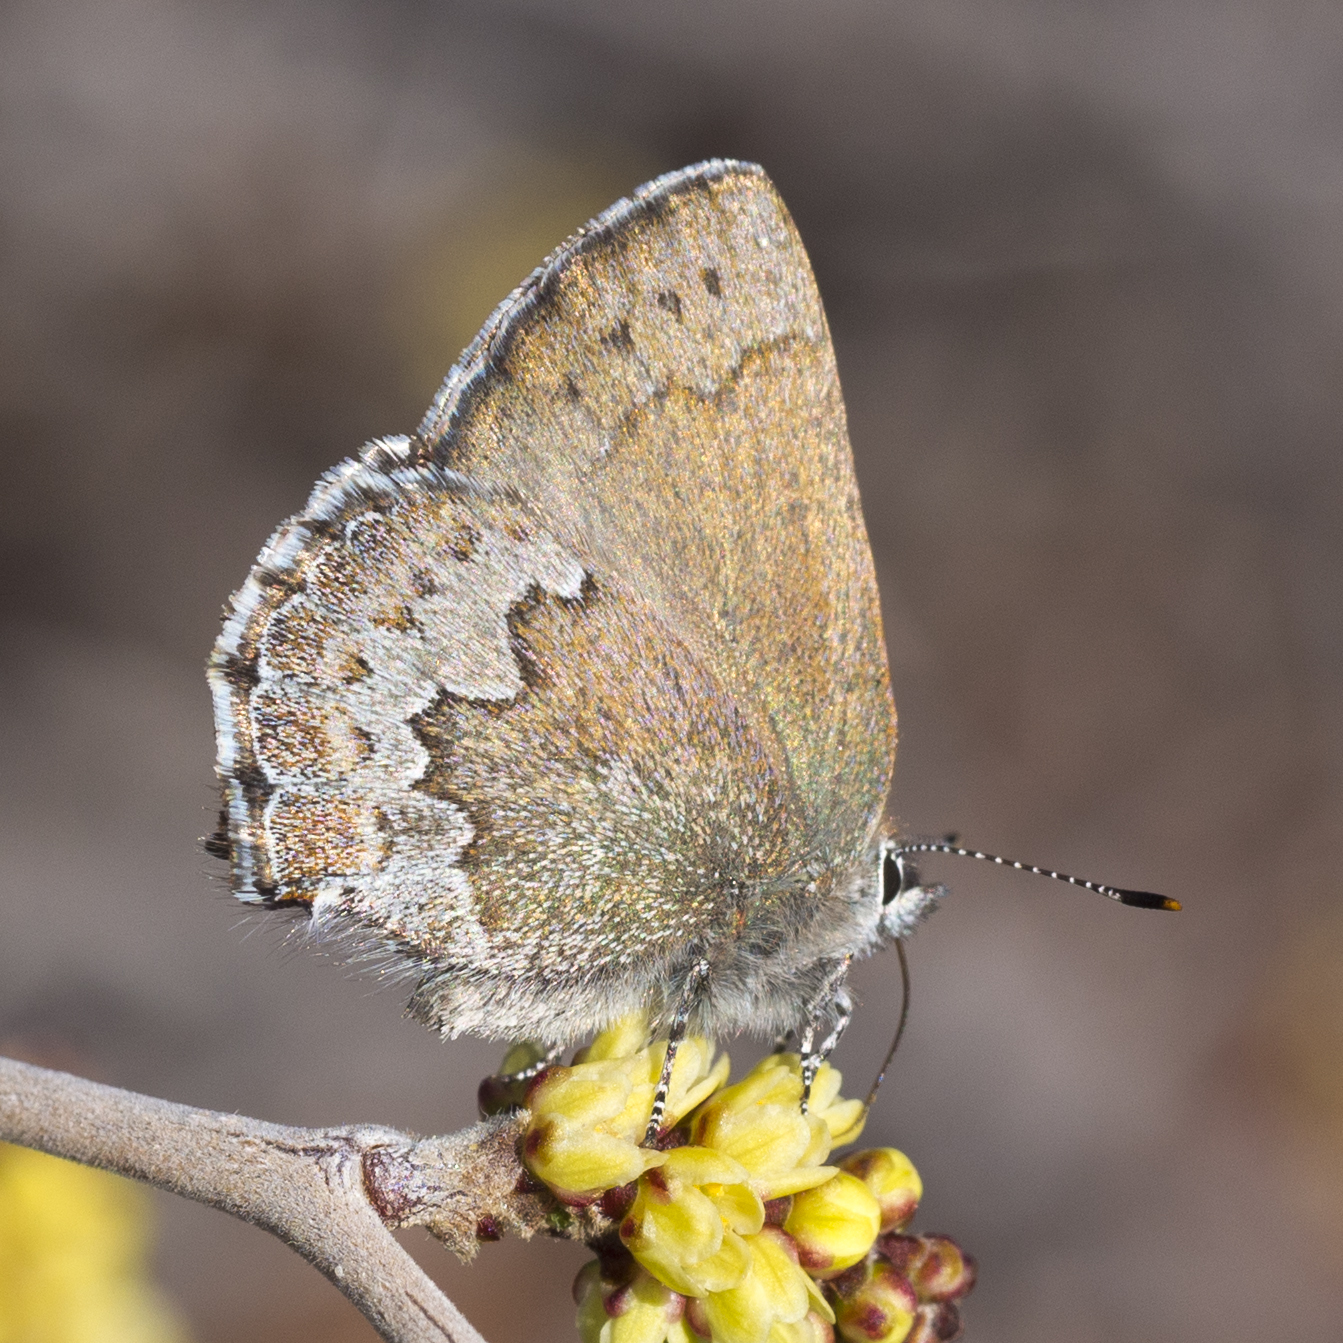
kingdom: Animalia
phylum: Arthropoda
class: Insecta
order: Lepidoptera
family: Lycaenidae
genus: Callophrys
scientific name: Callophrys fotis
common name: Desert elfin
